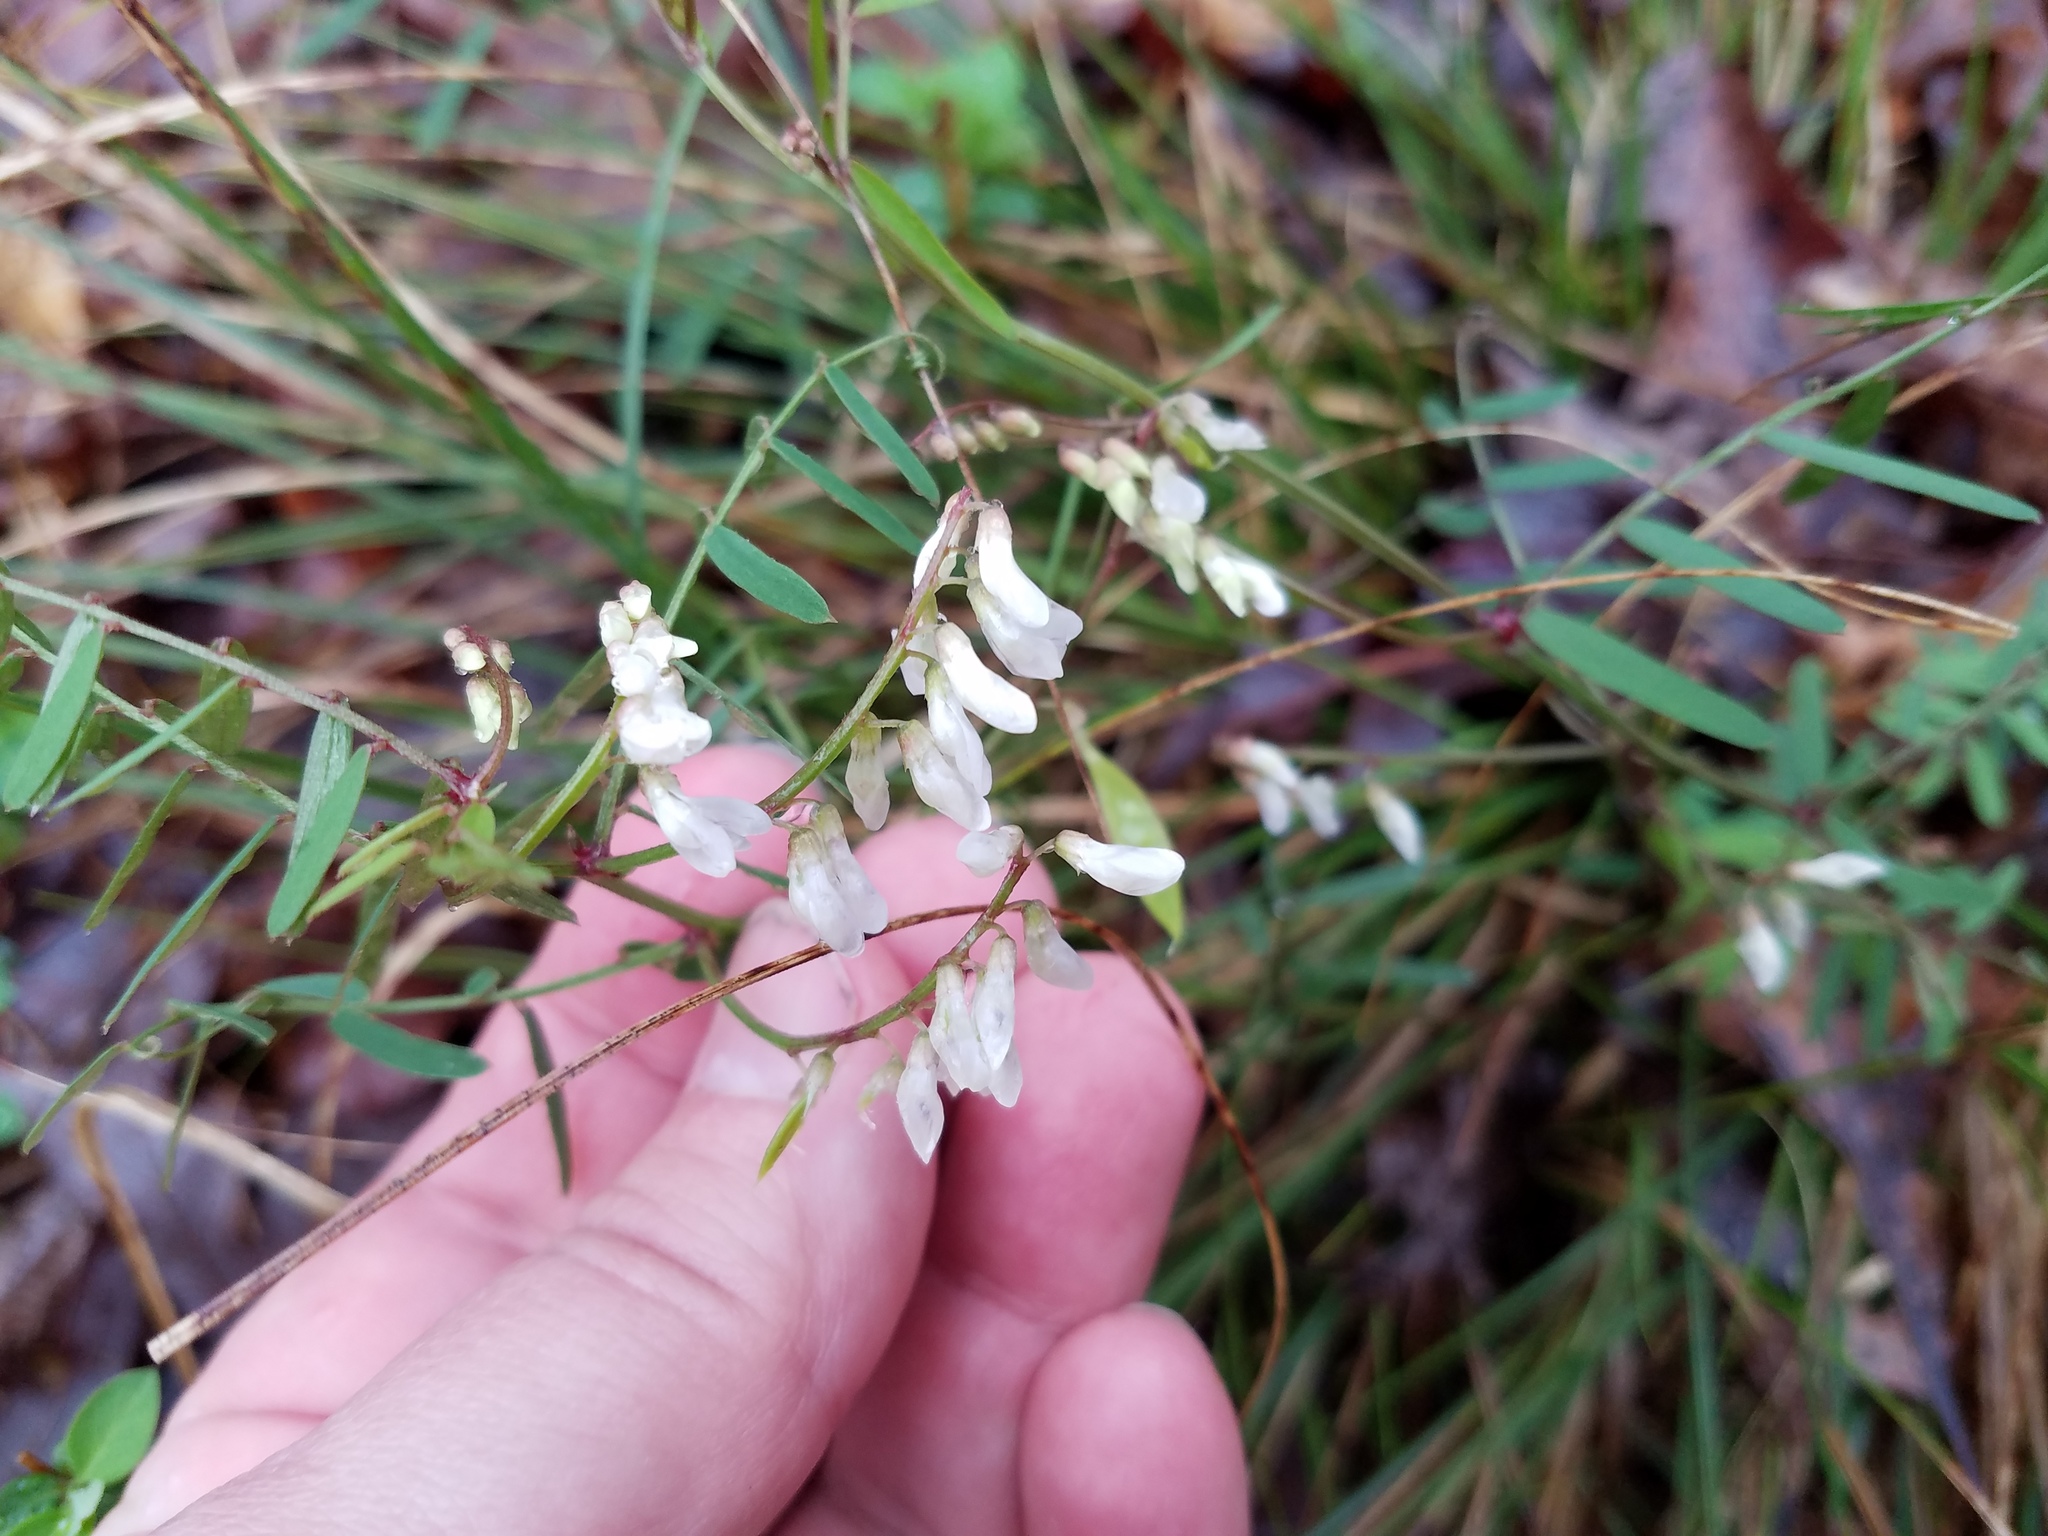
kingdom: Plantae
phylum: Tracheophyta
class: Magnoliopsida
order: Fabales
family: Fabaceae
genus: Vicia
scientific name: Vicia caroliniana
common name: Carolina vetch
